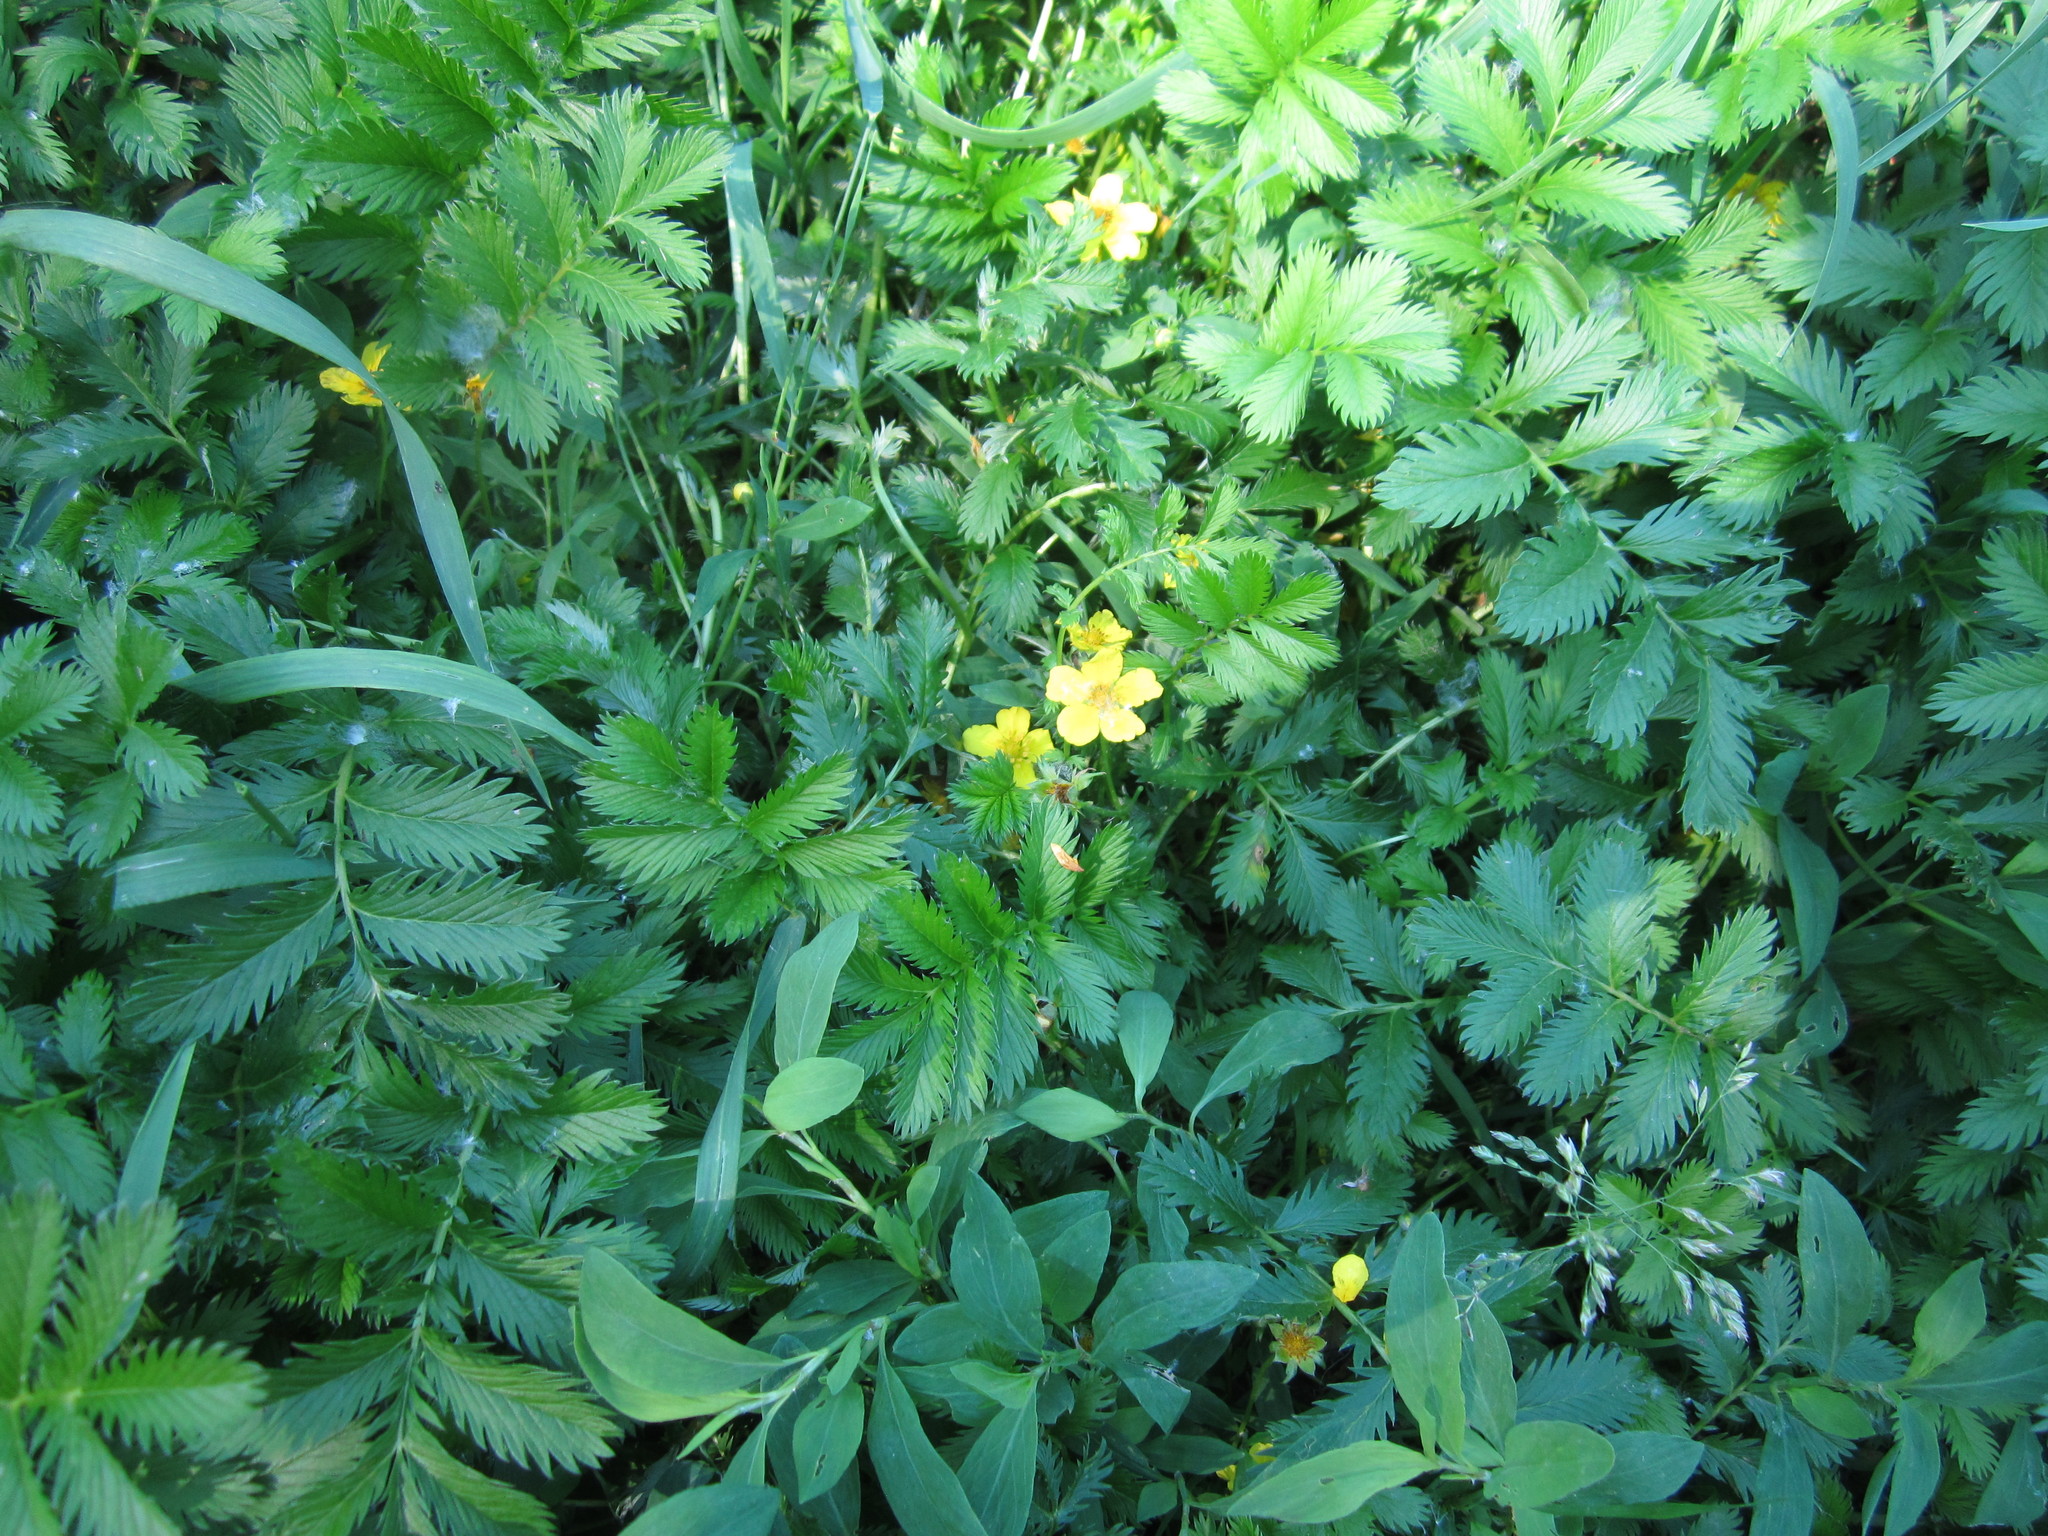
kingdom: Plantae
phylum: Tracheophyta
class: Magnoliopsida
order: Rosales
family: Rosaceae
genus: Argentina
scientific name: Argentina anserina
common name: Common silverweed
